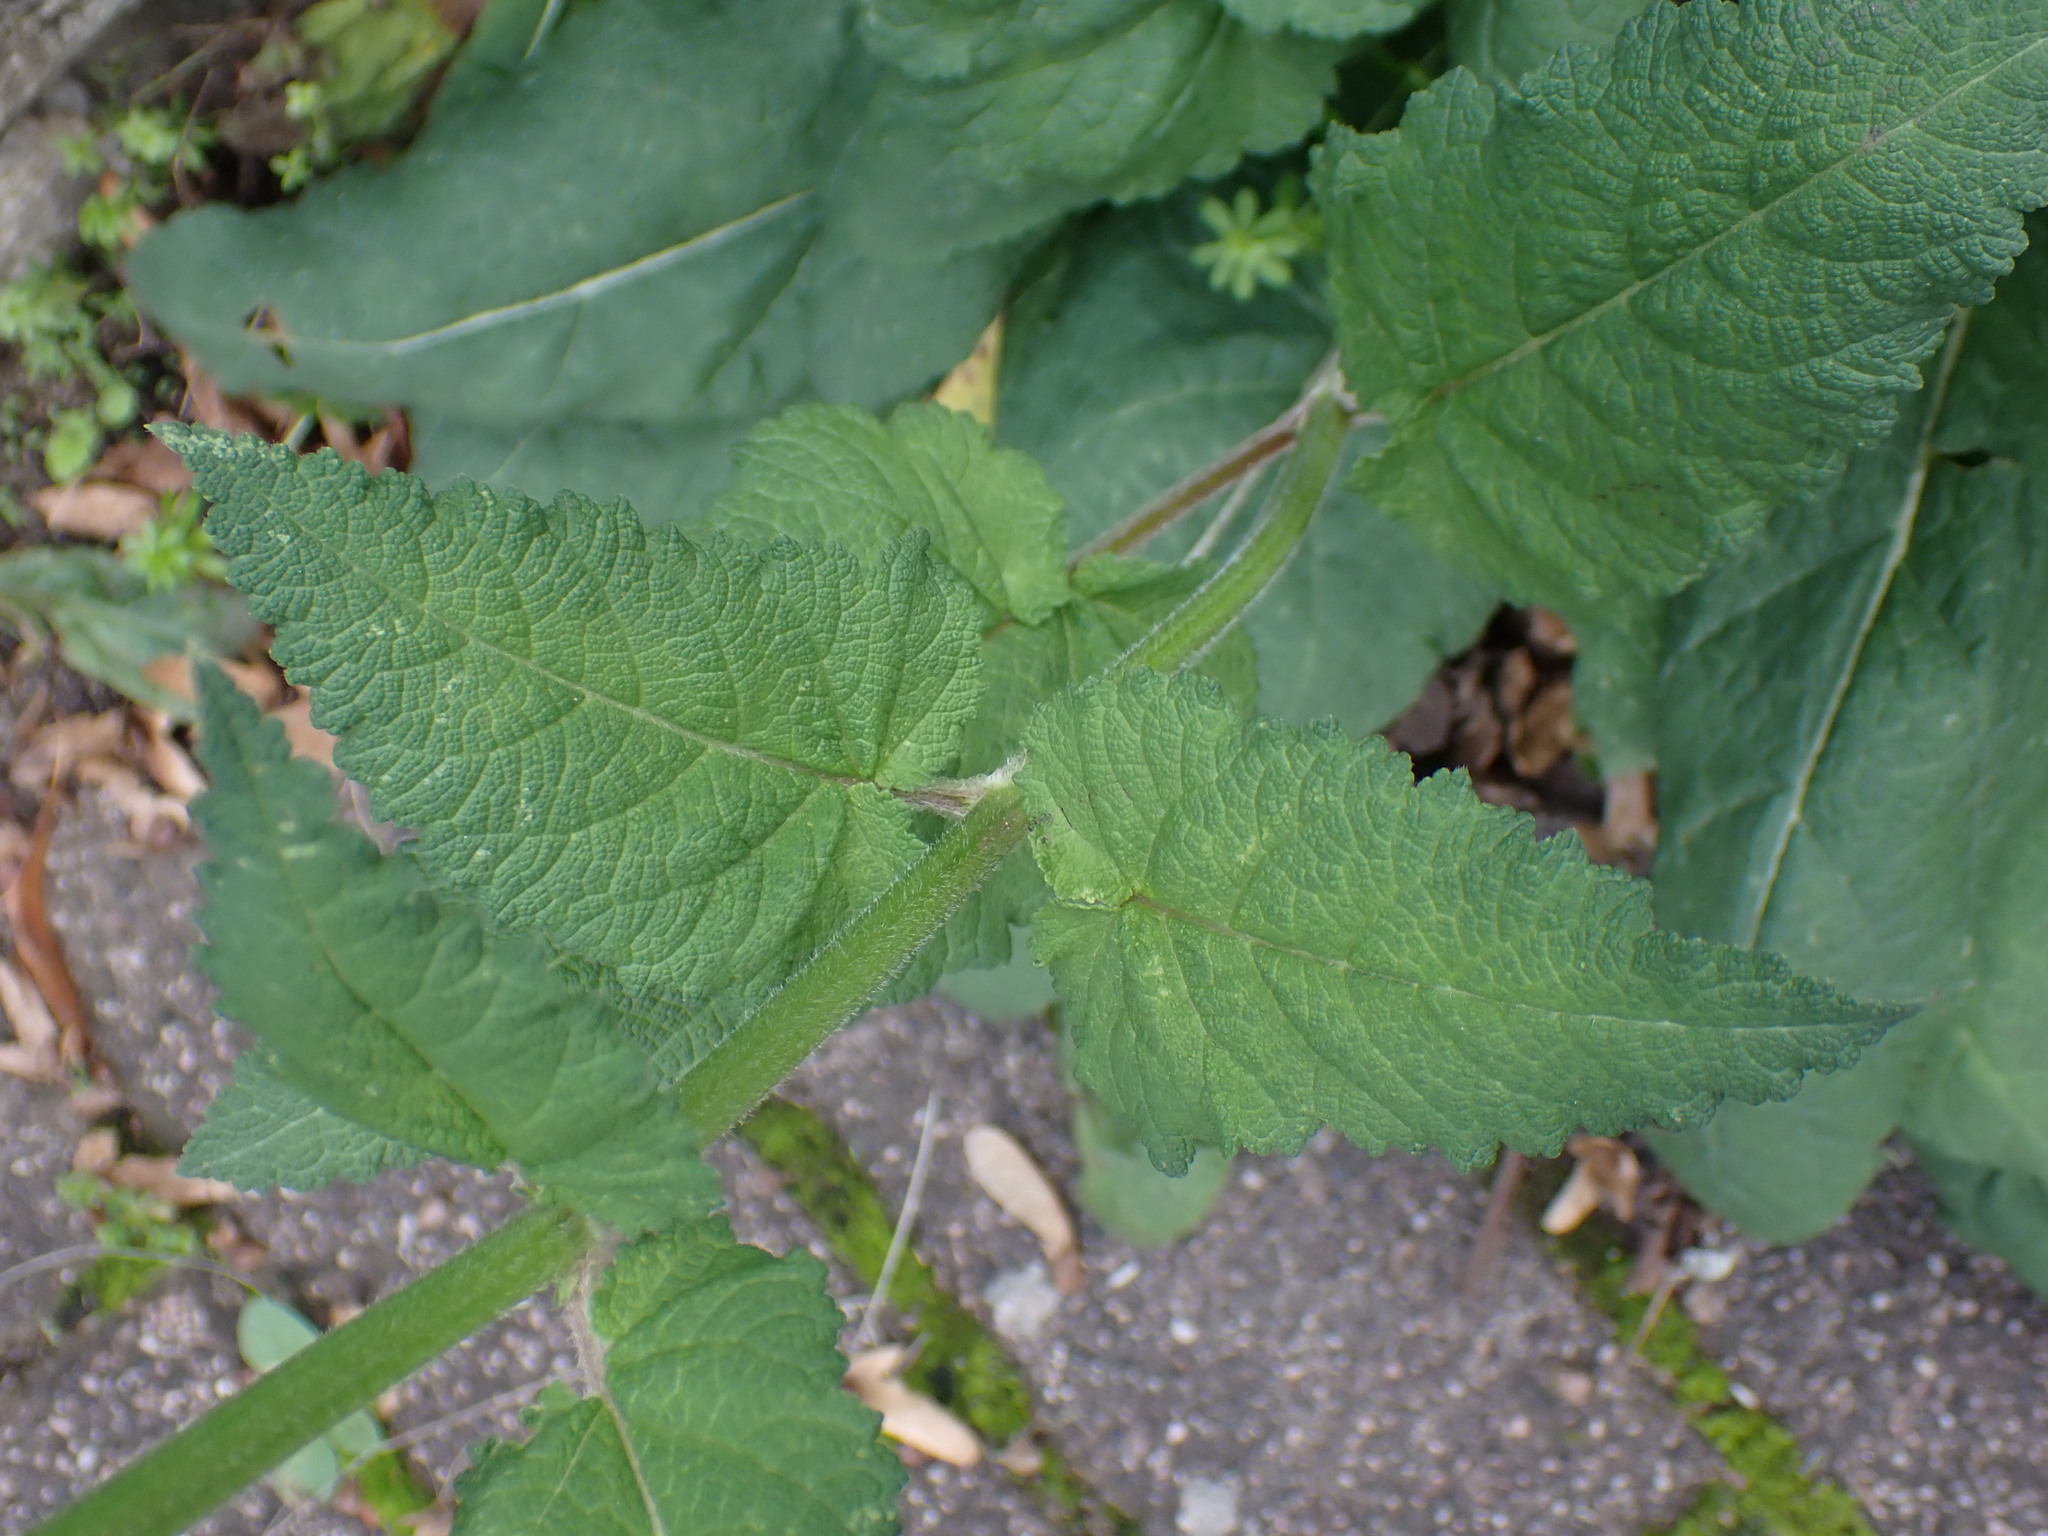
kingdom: Plantae
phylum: Tracheophyta
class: Magnoliopsida
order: Lamiales
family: Lamiaceae
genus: Salvia
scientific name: Salvia pratensis
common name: Meadow sage
